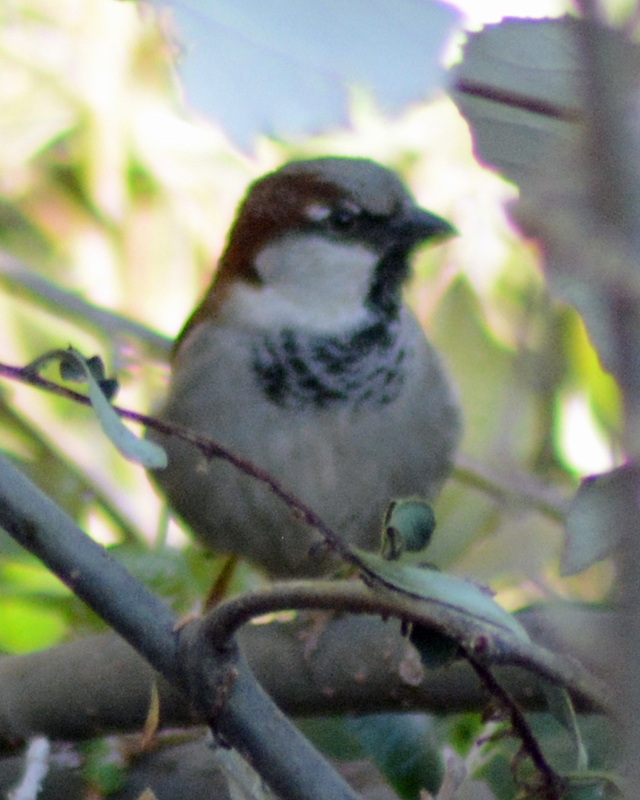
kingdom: Animalia
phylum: Chordata
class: Aves
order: Passeriformes
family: Passeridae
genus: Passer
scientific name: Passer domesticus
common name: House sparrow
